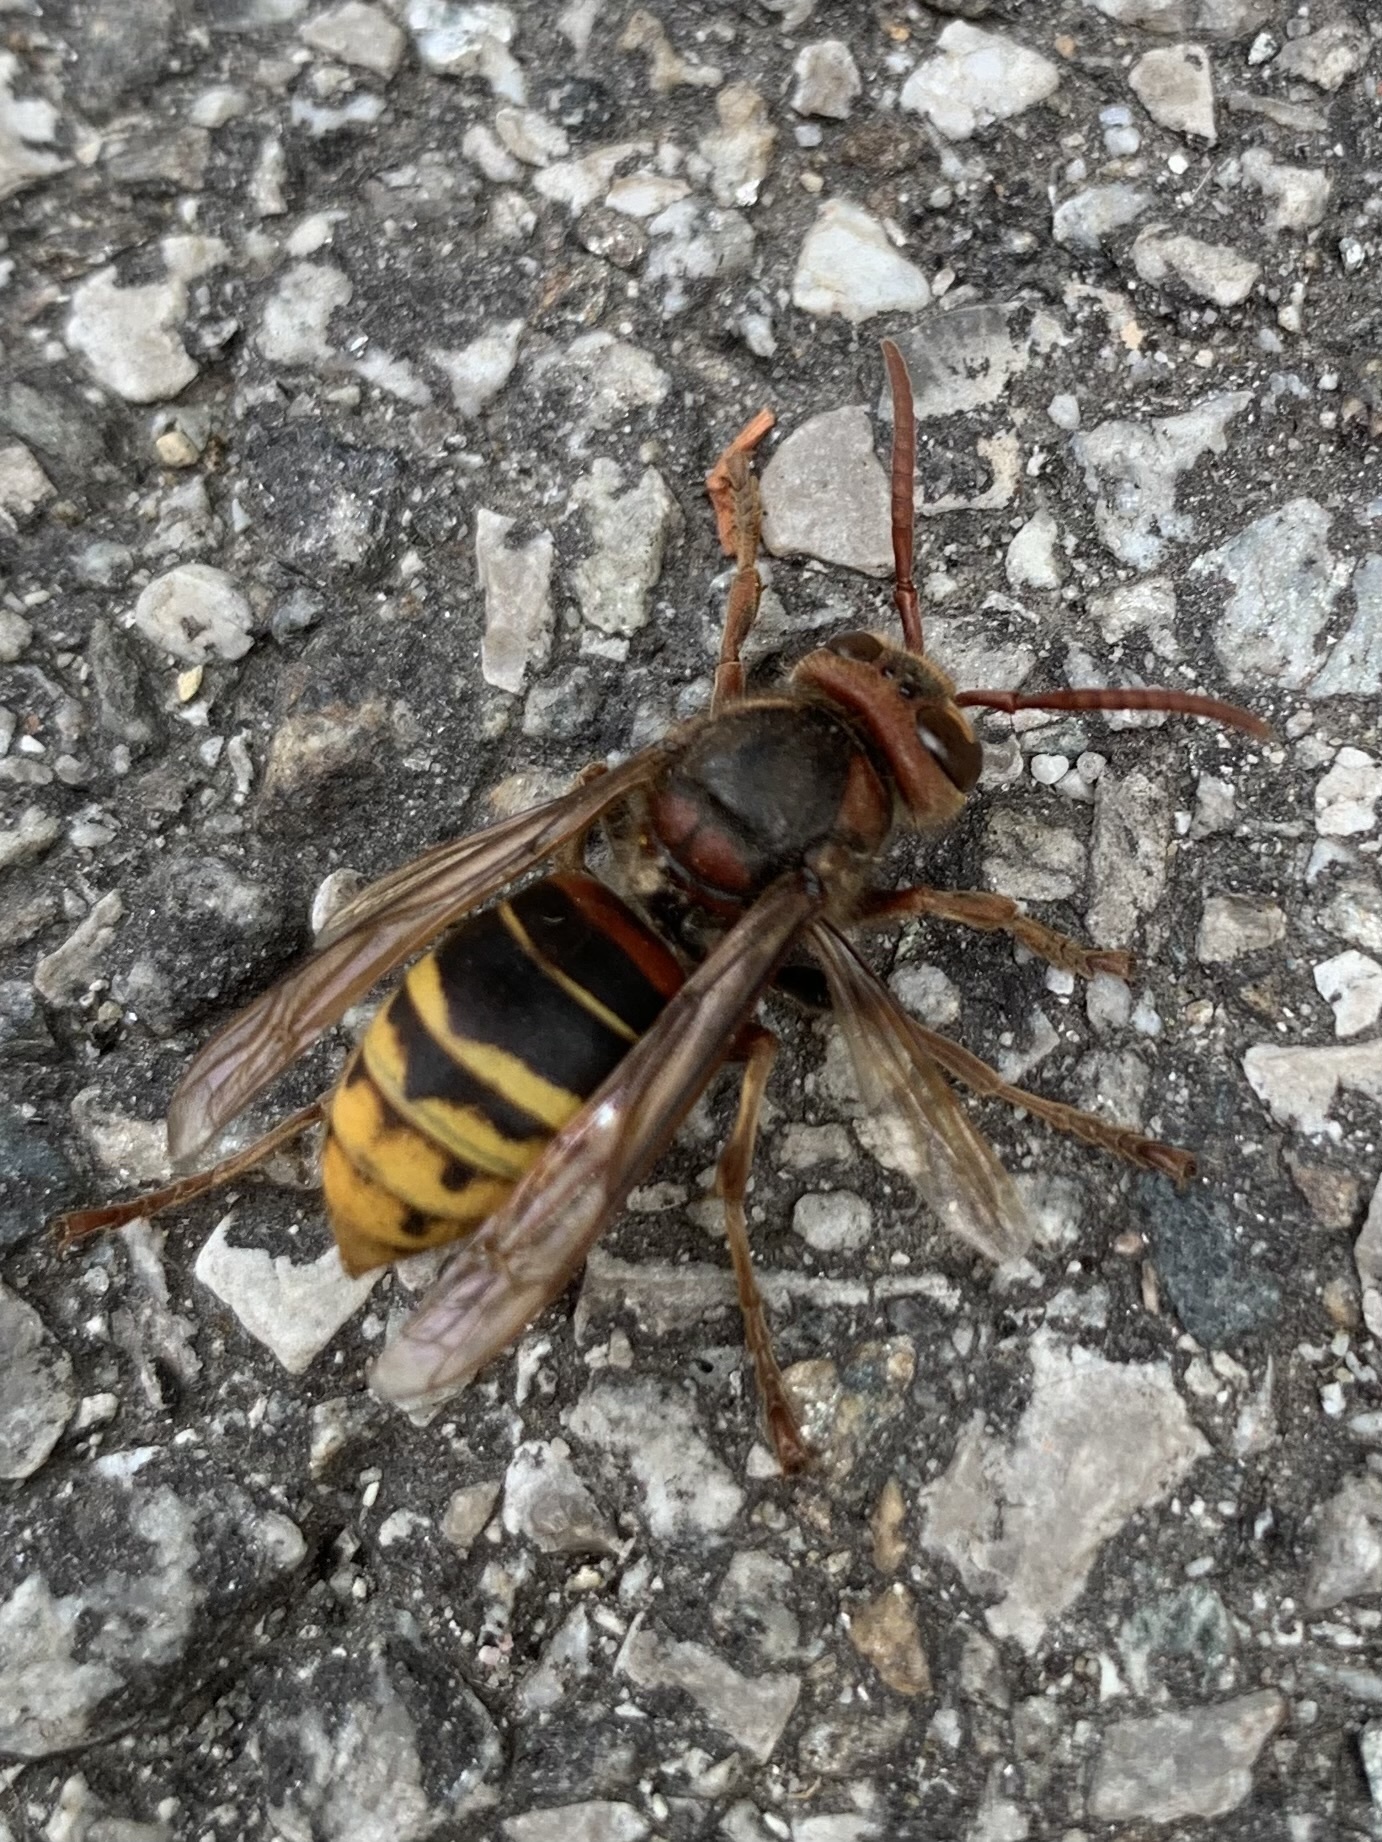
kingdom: Animalia
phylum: Arthropoda
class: Insecta
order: Hymenoptera
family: Vespidae
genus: Vespa
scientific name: Vespa crabro
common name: Hornet
